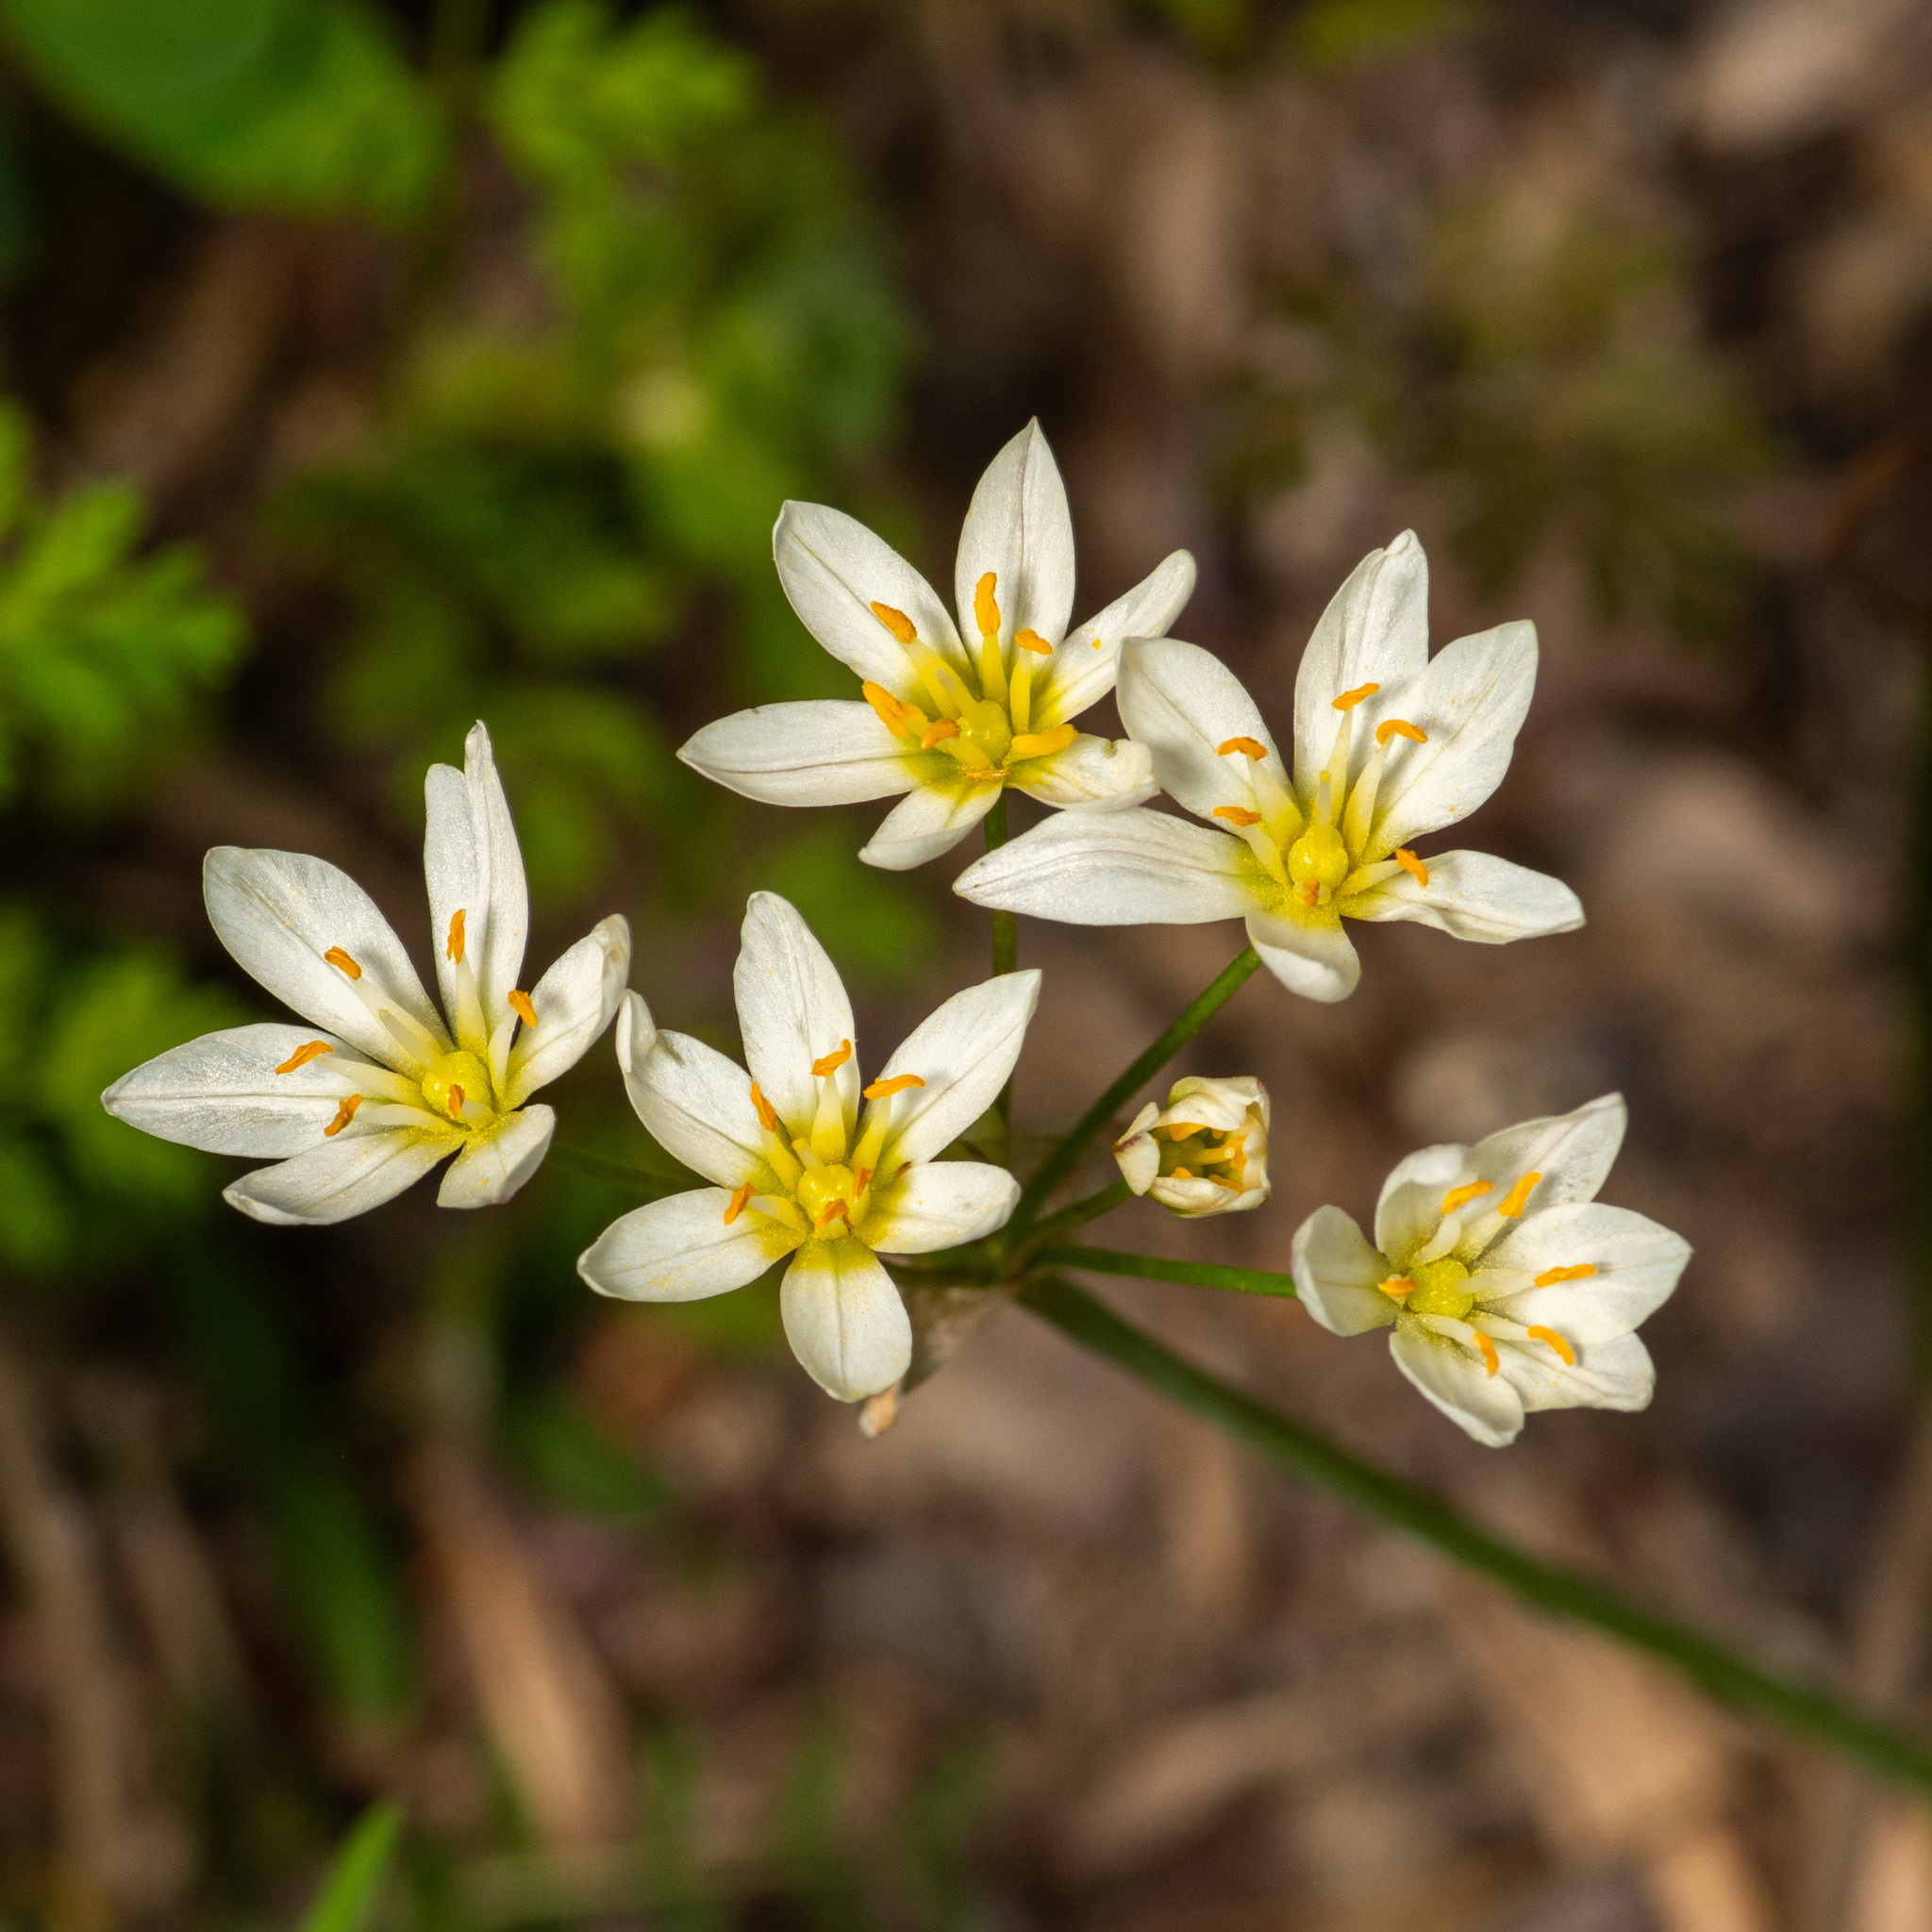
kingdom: Plantae
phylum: Tracheophyta
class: Liliopsida
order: Asparagales
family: Amaryllidaceae
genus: Nothoscordum
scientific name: Nothoscordum bivalve
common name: Crow-poison
